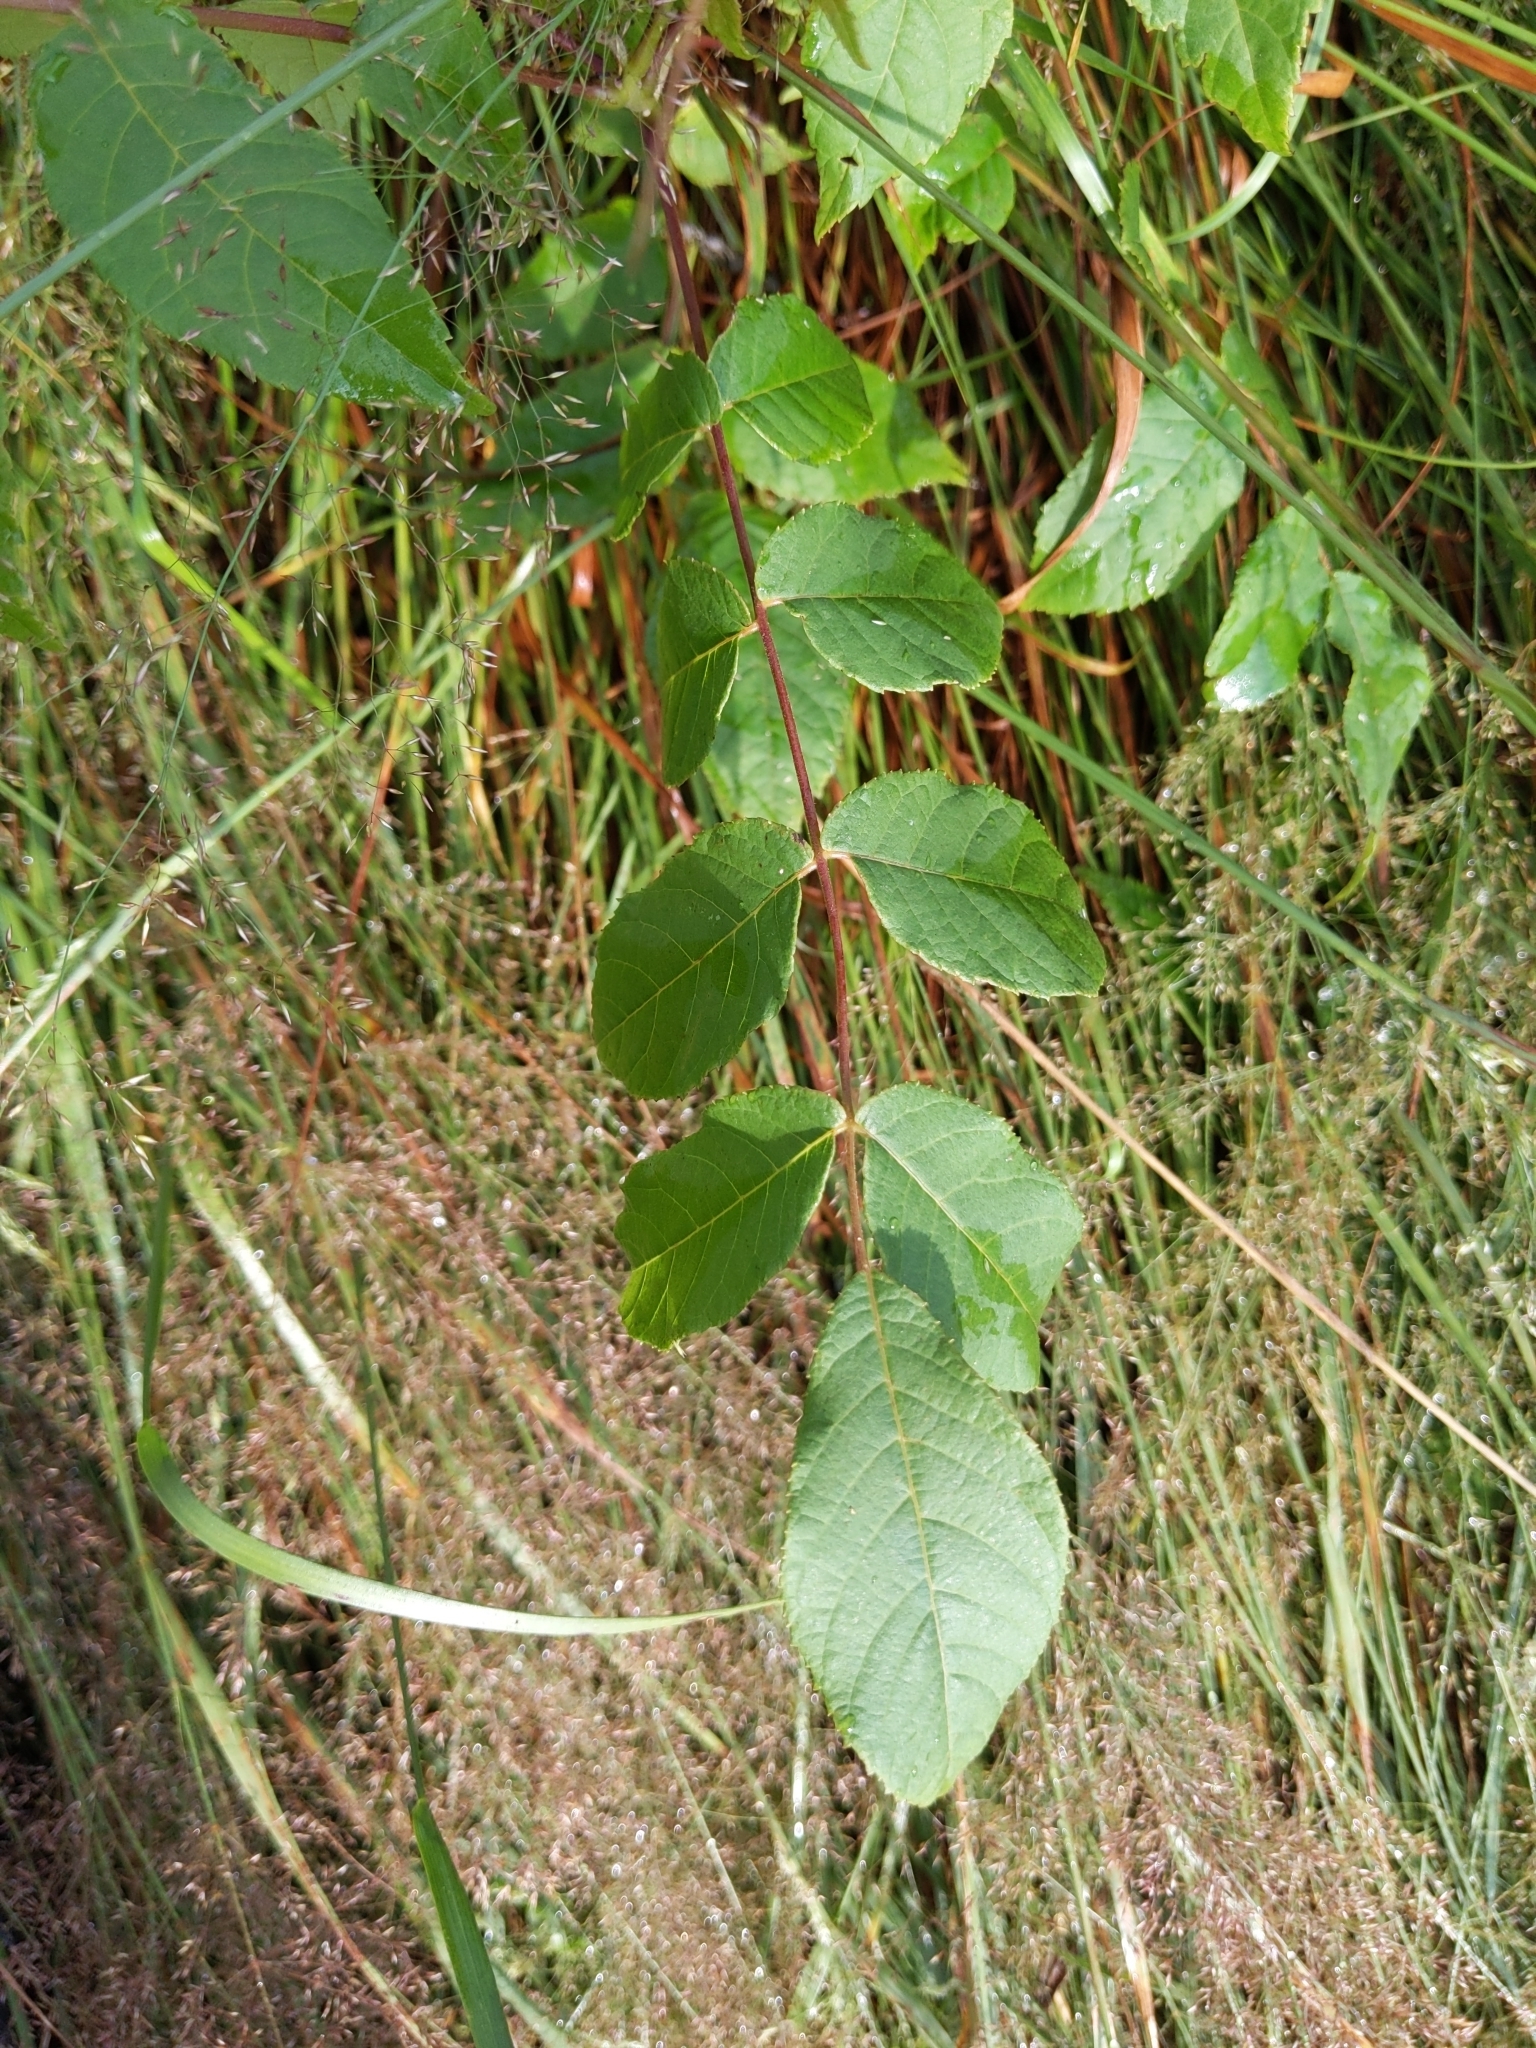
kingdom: Plantae
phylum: Tracheophyta
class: Magnoliopsida
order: Fagales
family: Juglandaceae
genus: Juglans
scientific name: Juglans cinerea
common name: Butternut
